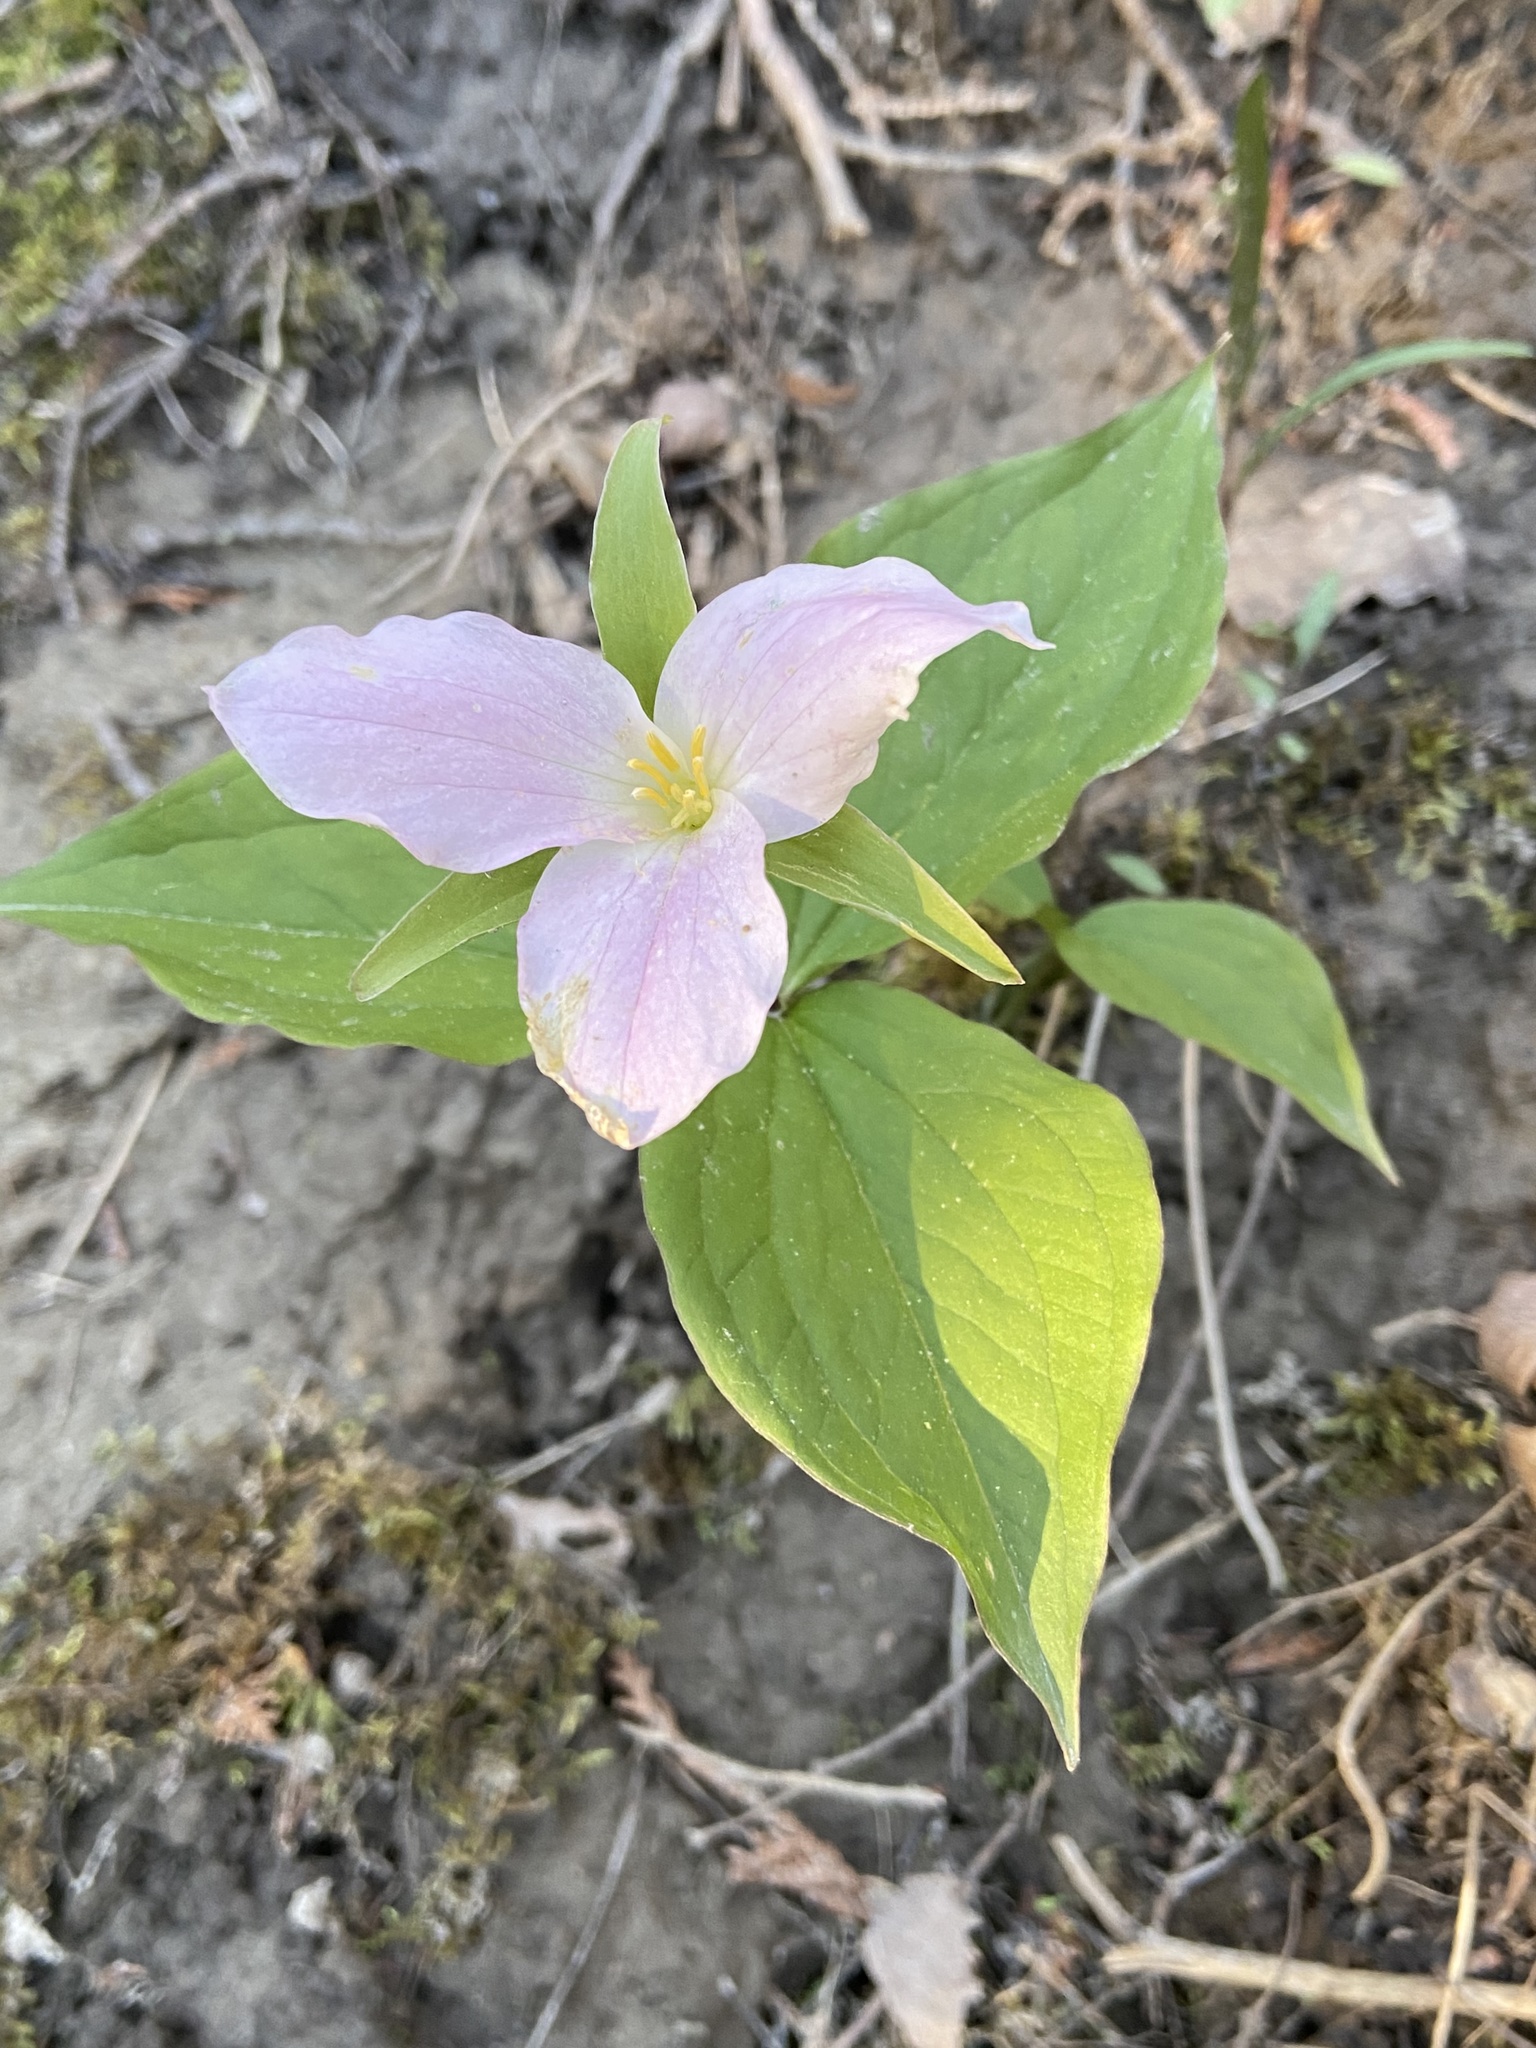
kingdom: Plantae
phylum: Tracheophyta
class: Liliopsida
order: Liliales
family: Melanthiaceae
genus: Trillium
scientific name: Trillium grandiflorum
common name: Great white trillium
